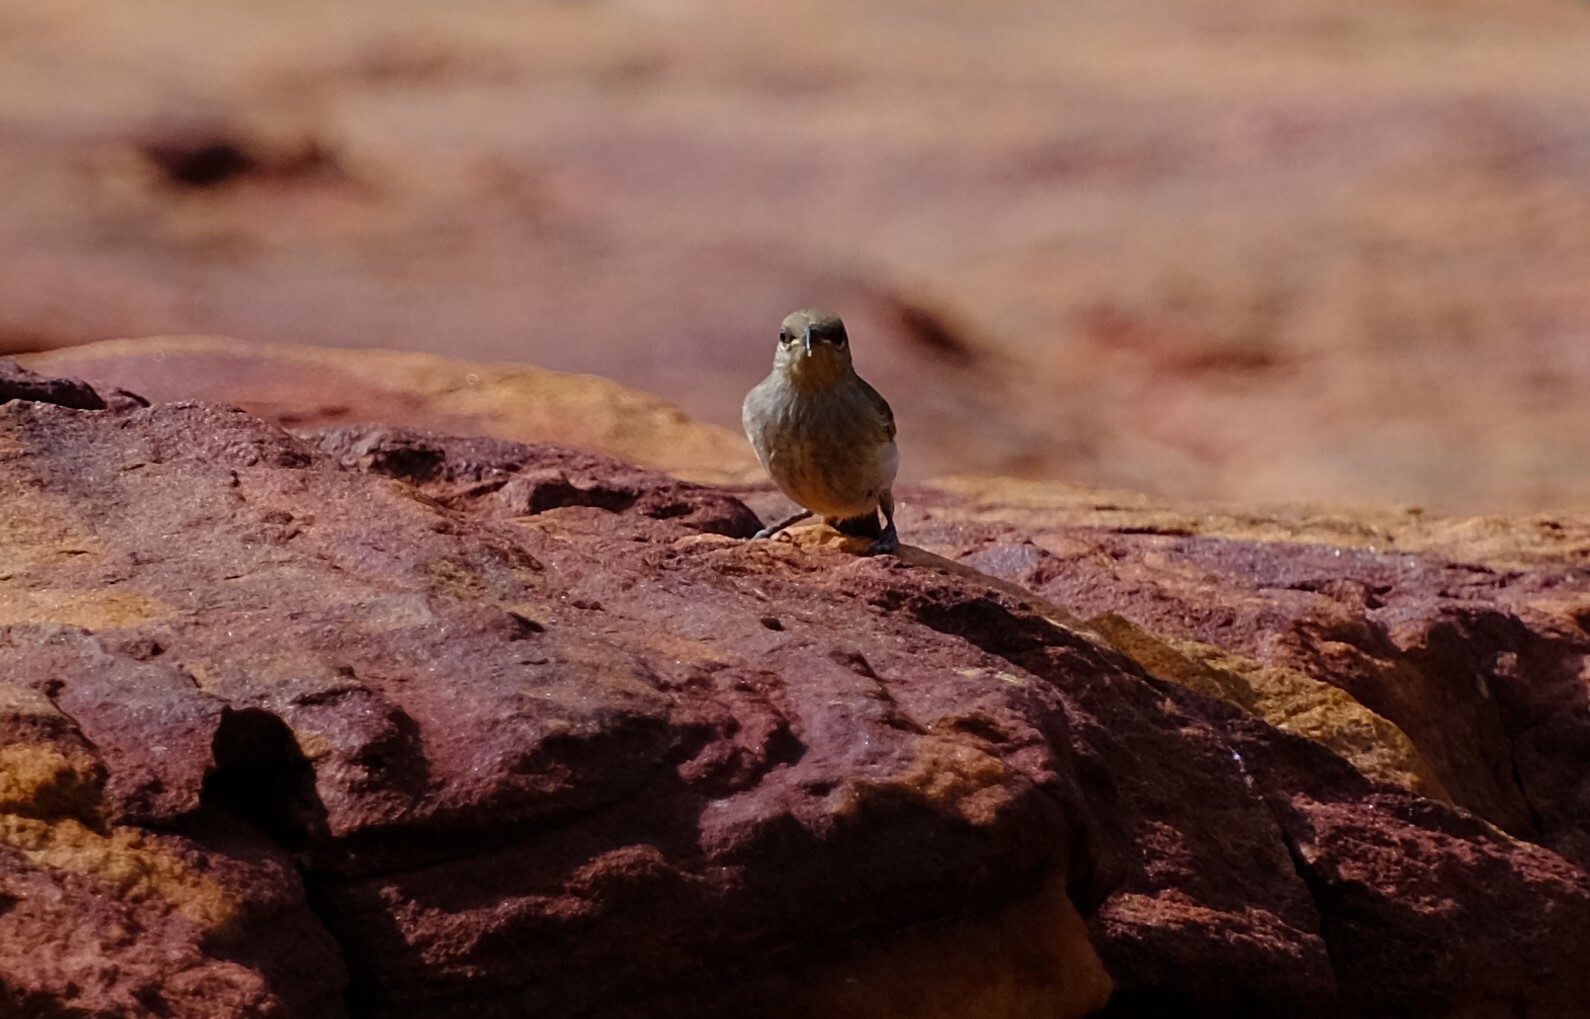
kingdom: Animalia
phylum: Chordata
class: Aves
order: Passeriformes
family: Meliphagidae
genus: Gavicalis
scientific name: Gavicalis virescens
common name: Singing honeyeater
